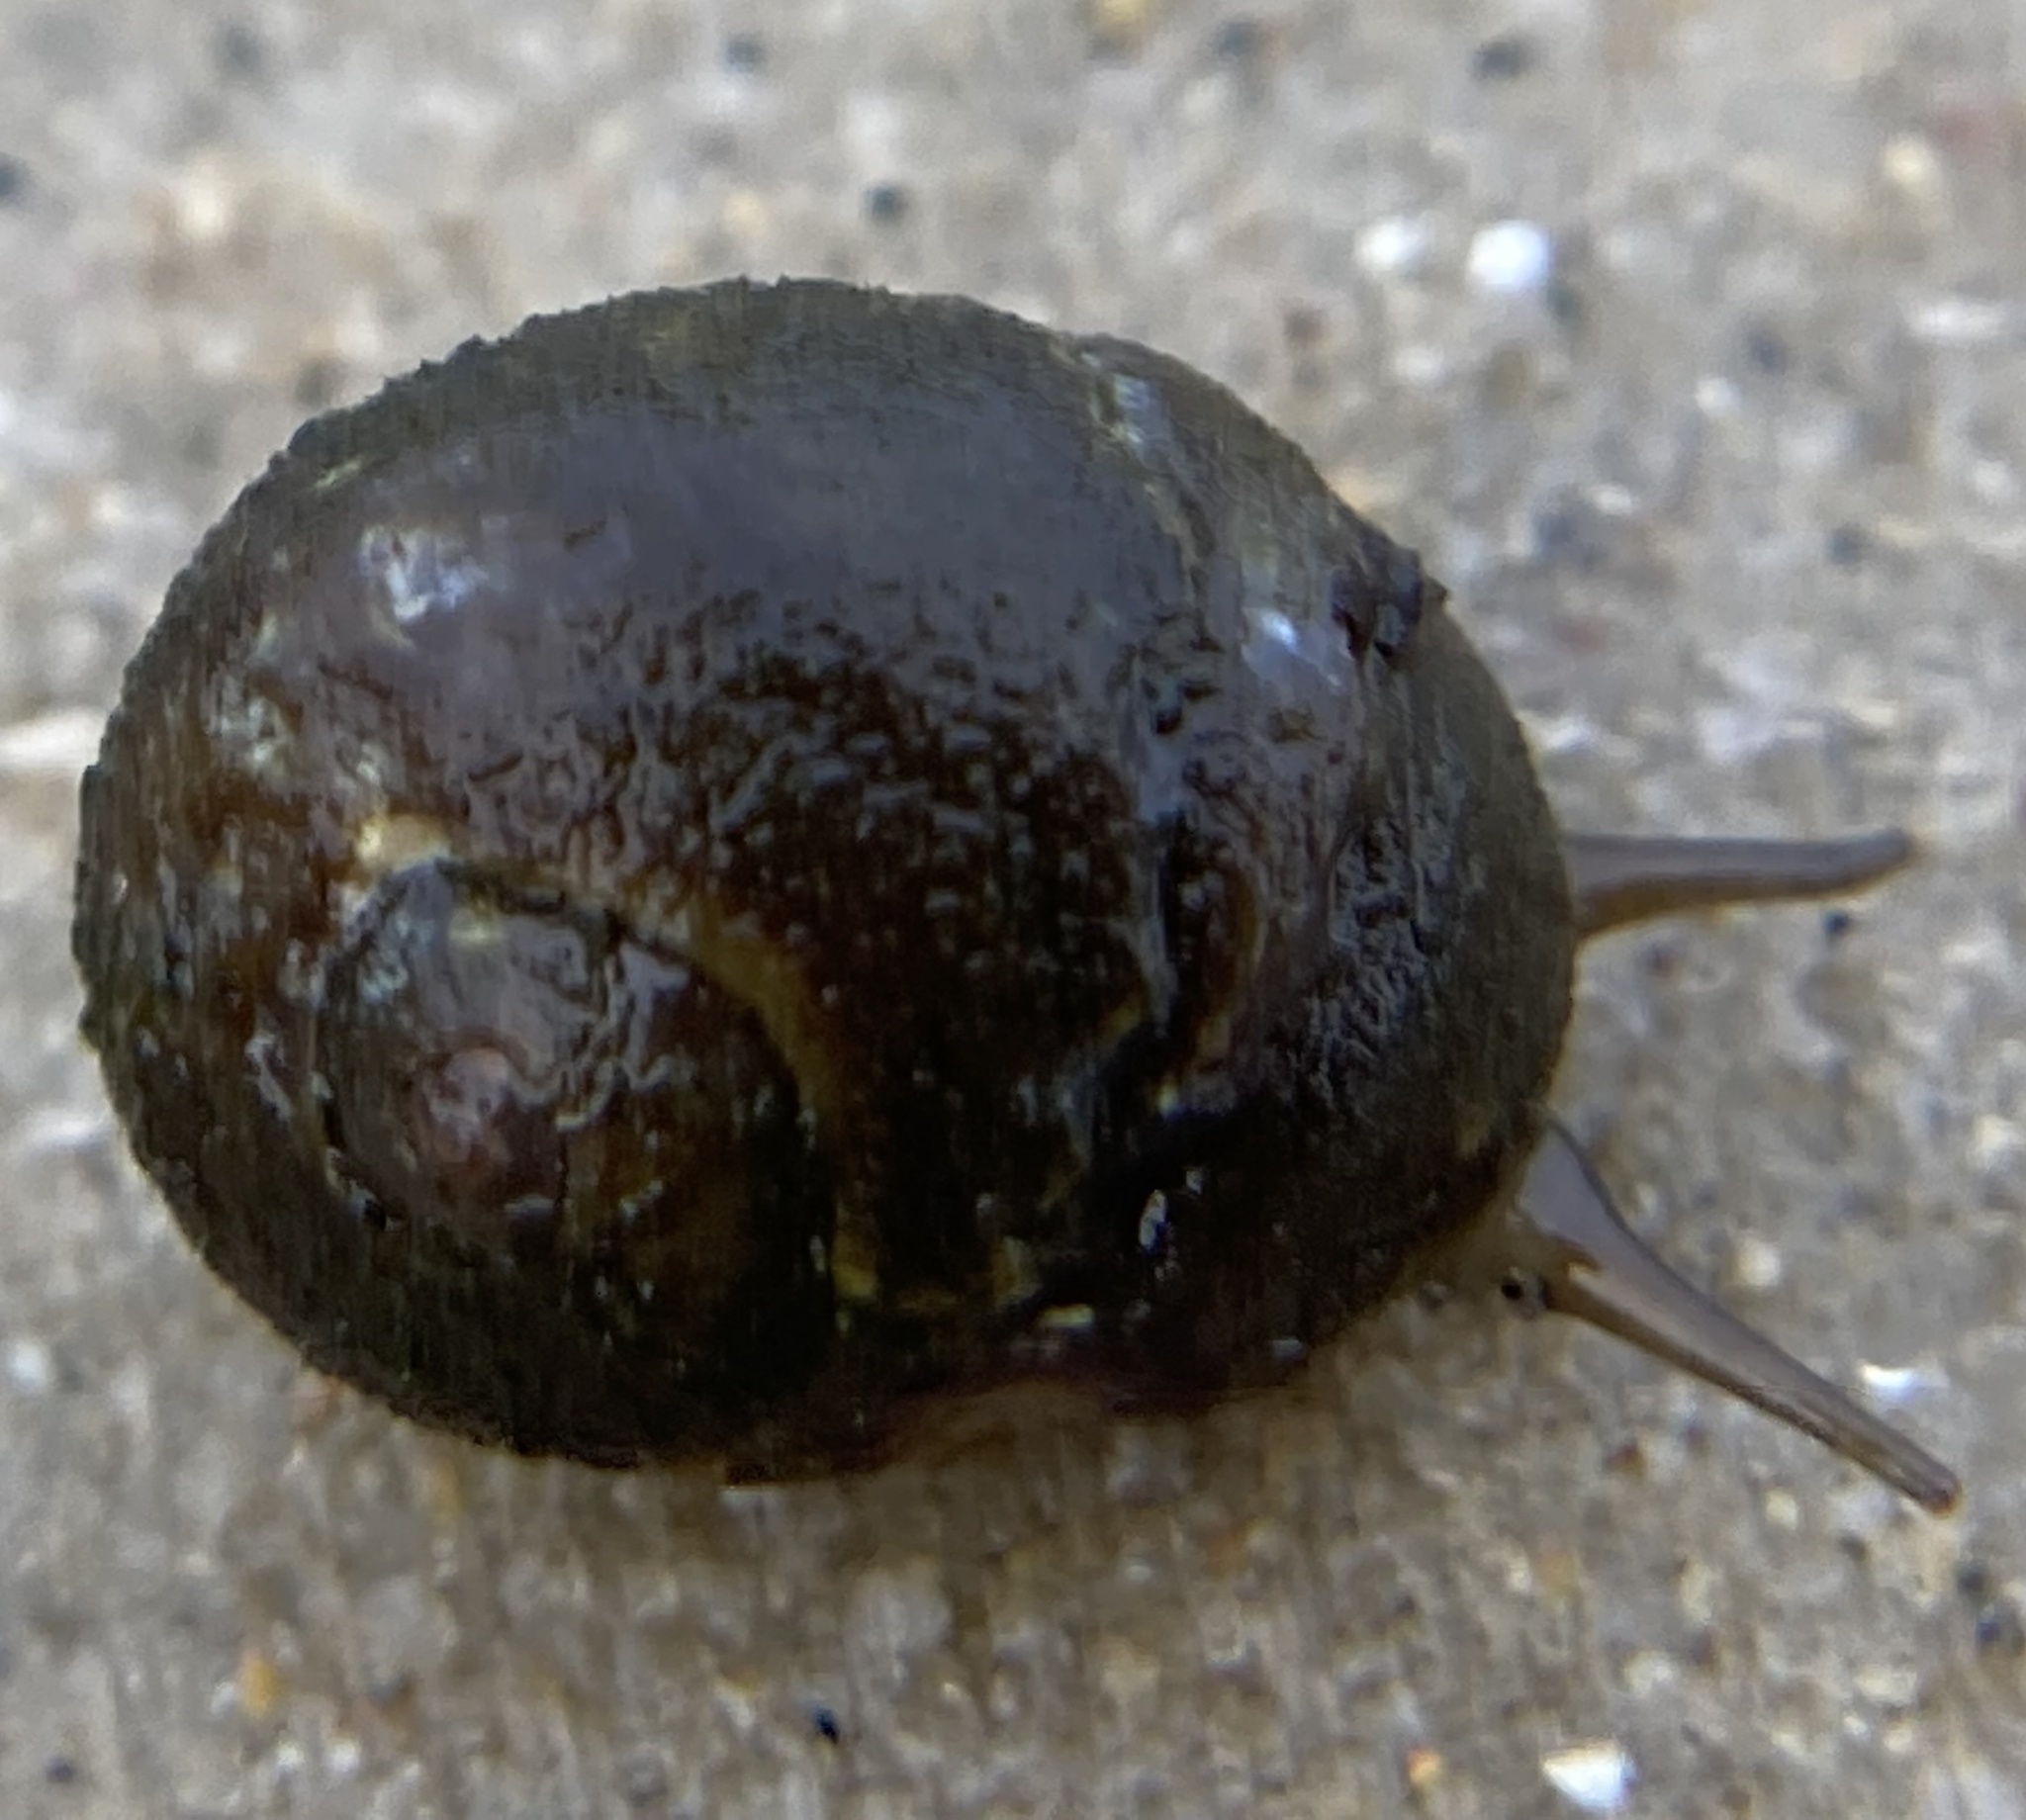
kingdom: Animalia
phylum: Mollusca
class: Gastropoda
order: Littorinimorpha
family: Littorinidae
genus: Littorina
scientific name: Littorina obtusata
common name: Flat periwinkle
